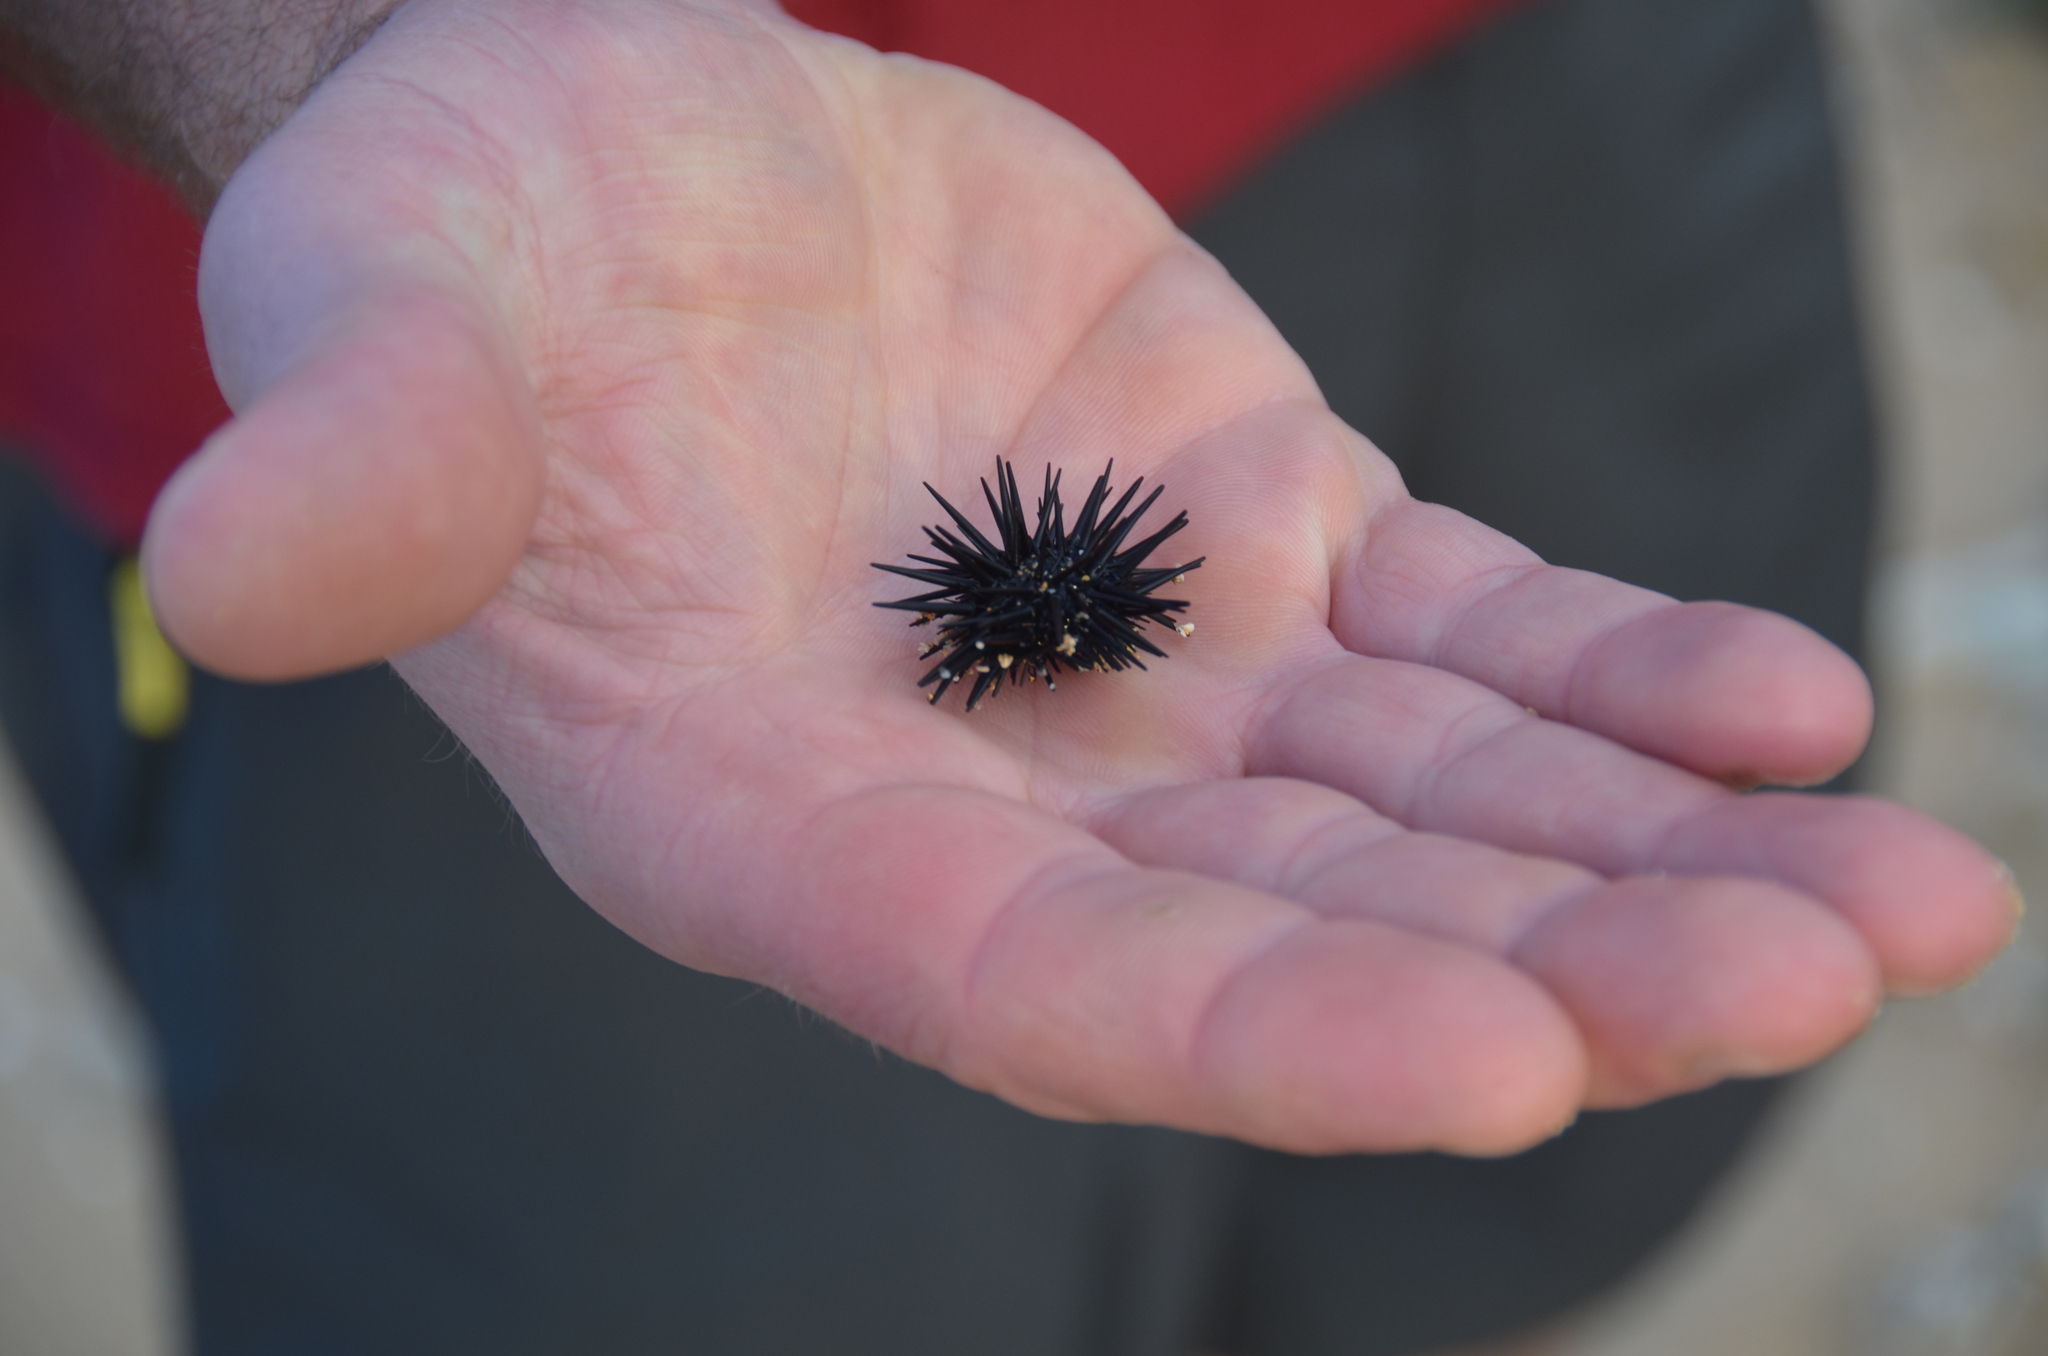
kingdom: Animalia
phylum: Echinodermata
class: Echinoidea
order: Camarodonta
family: Echinometridae
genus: Echinometra
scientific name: Echinometra oblonga
